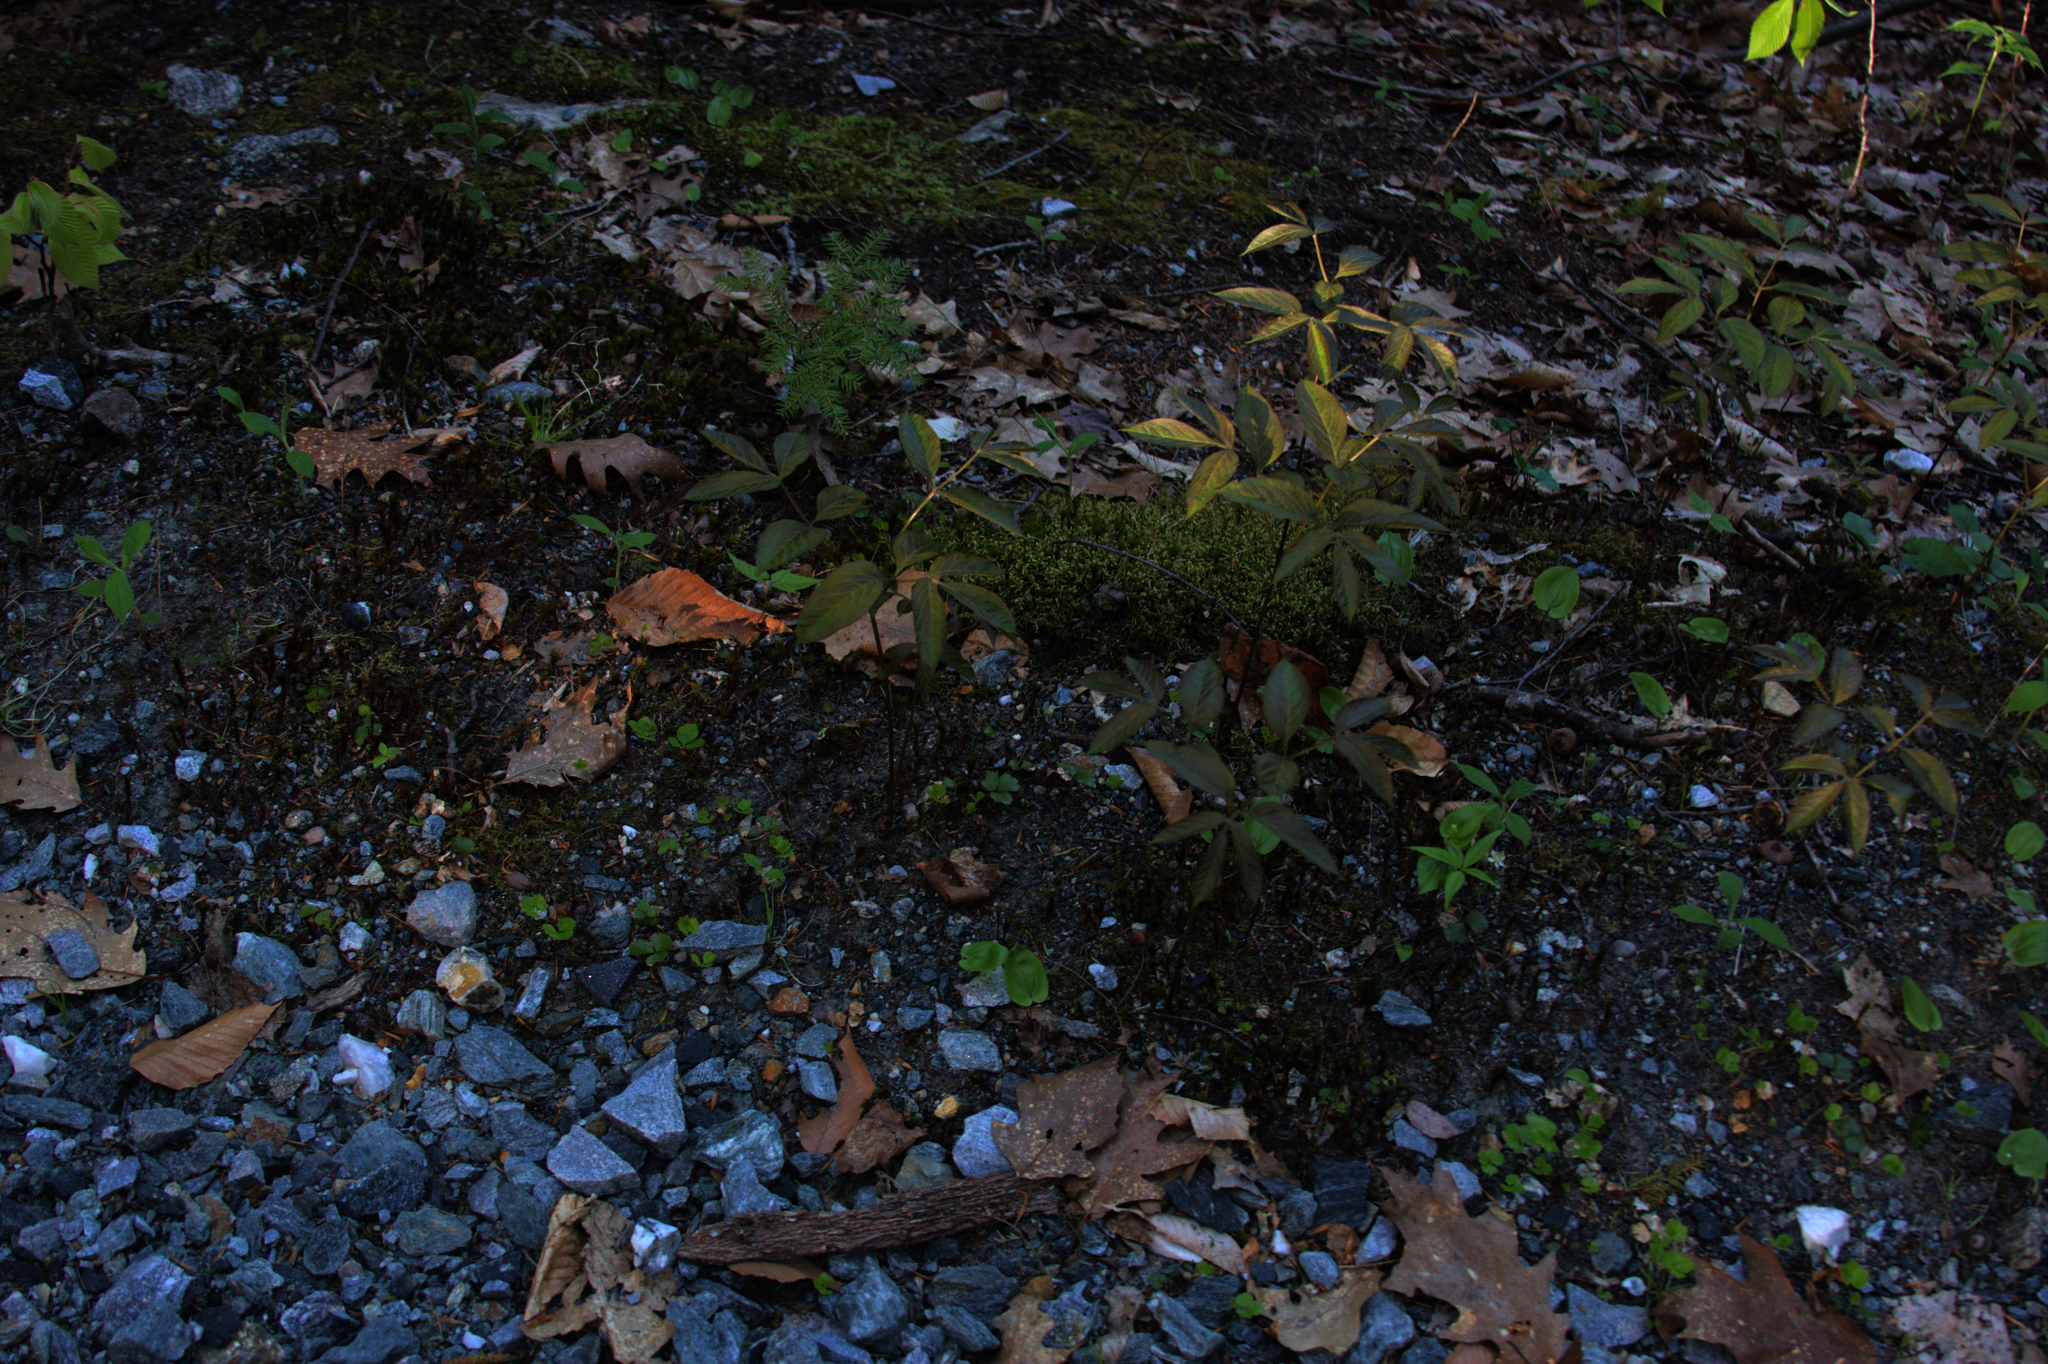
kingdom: Plantae
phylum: Tracheophyta
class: Magnoliopsida
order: Apiales
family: Araliaceae
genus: Aralia
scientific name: Aralia nudicaulis
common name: Wild sarsaparilla
